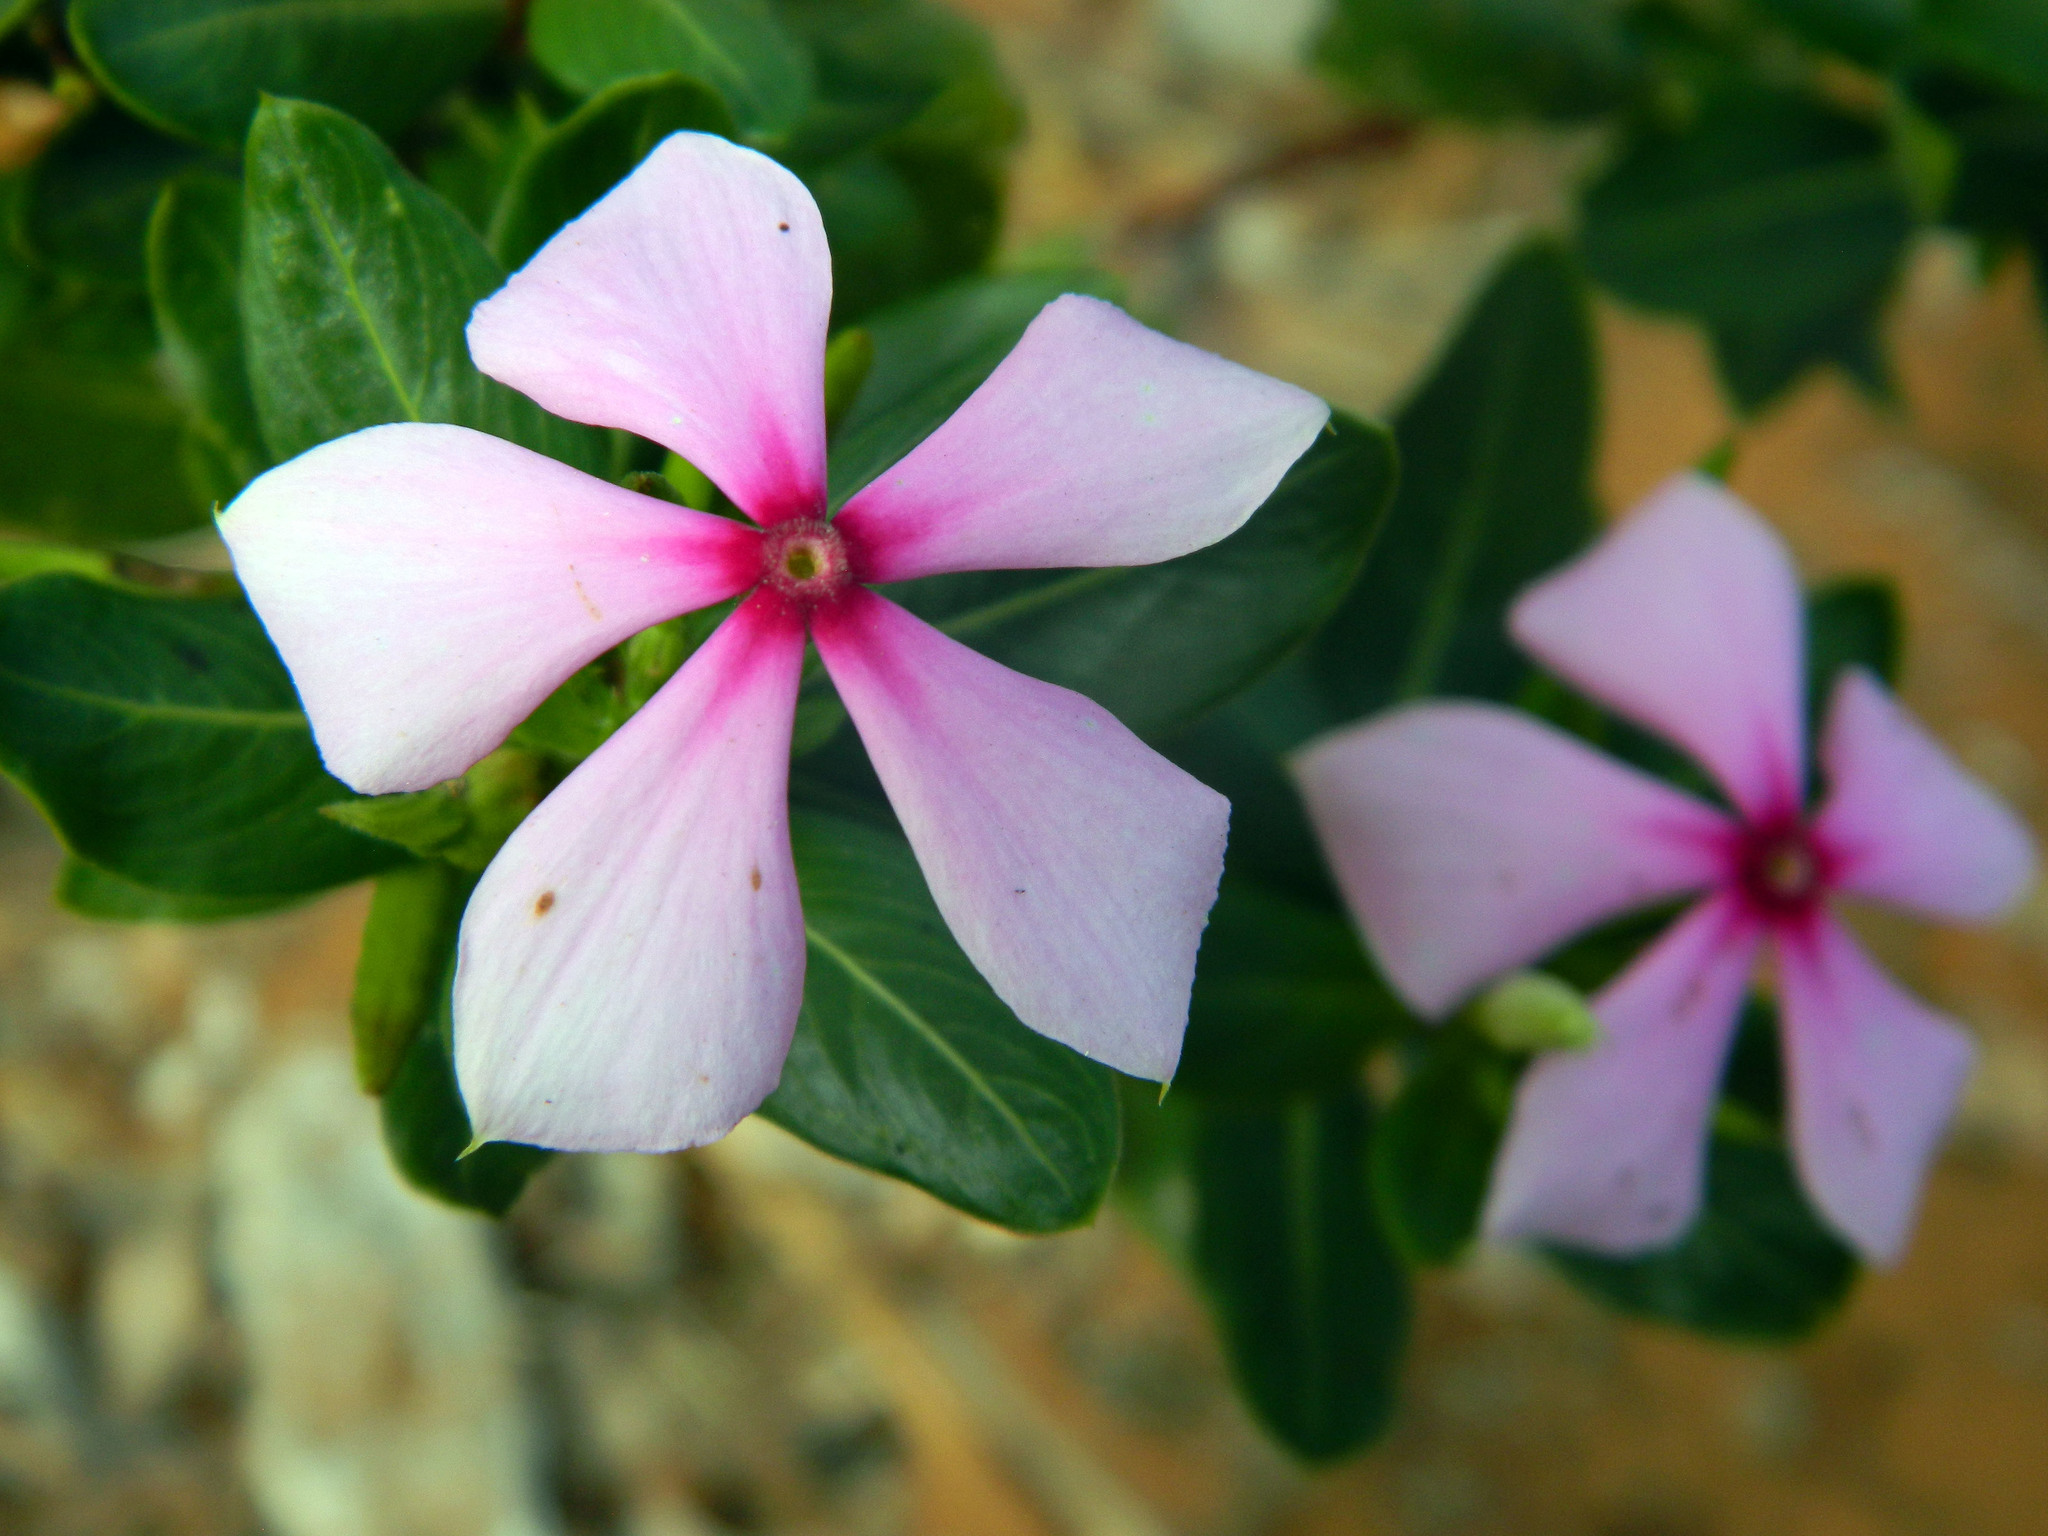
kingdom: Plantae
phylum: Tracheophyta
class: Magnoliopsida
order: Gentianales
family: Apocynaceae
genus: Catharanthus
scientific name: Catharanthus roseus
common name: Madagascar periwinkle
